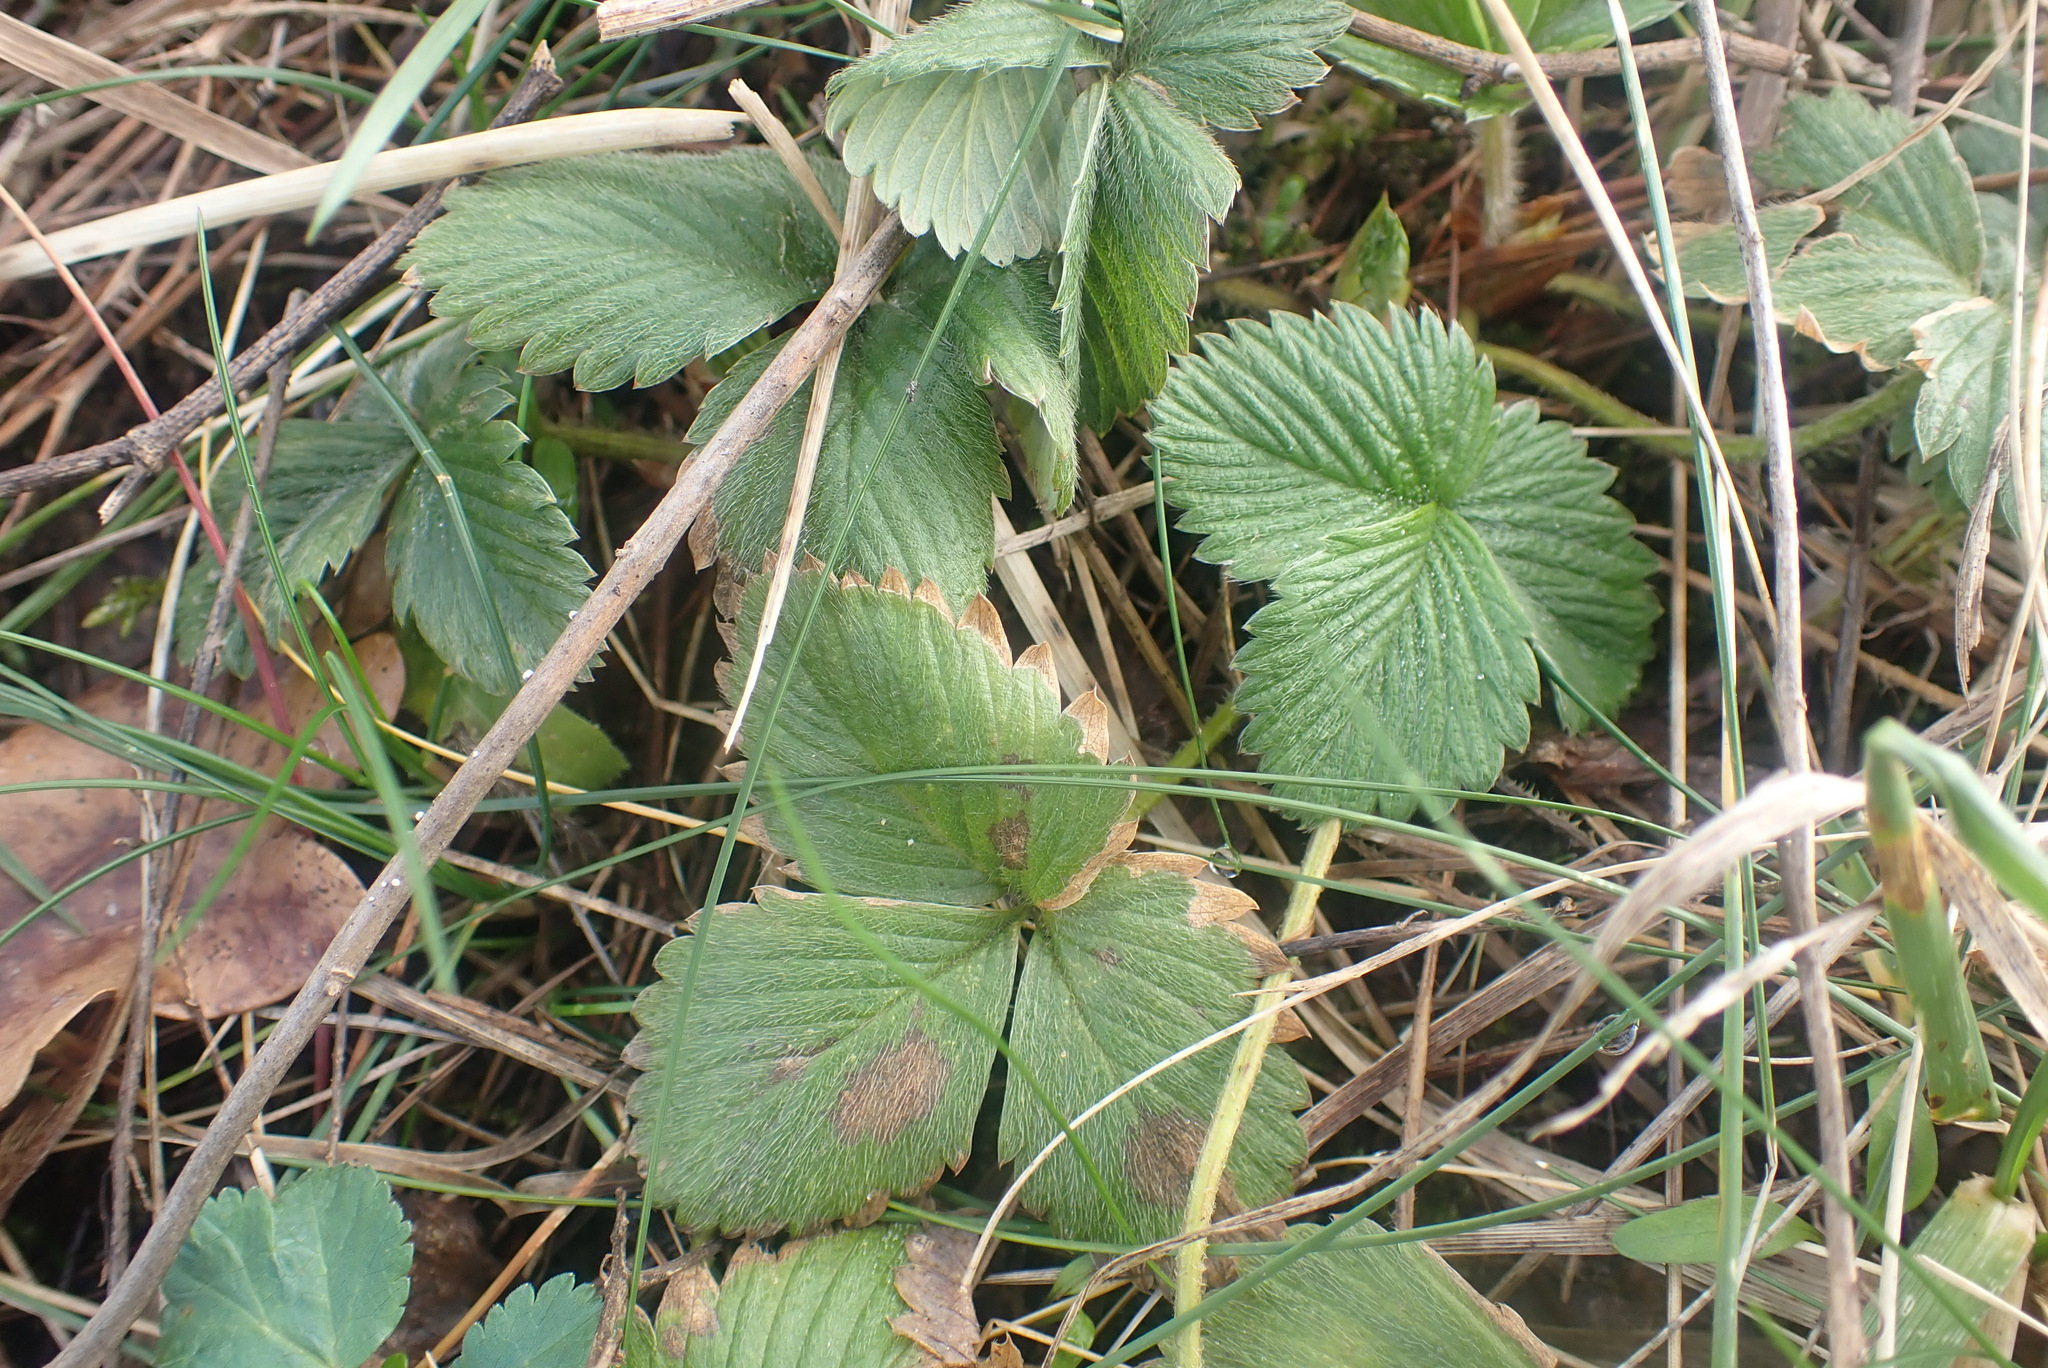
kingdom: Plantae
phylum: Tracheophyta
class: Magnoliopsida
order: Rosales
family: Rosaceae
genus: Fragaria
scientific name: Fragaria vesca
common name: Wild strawberry
